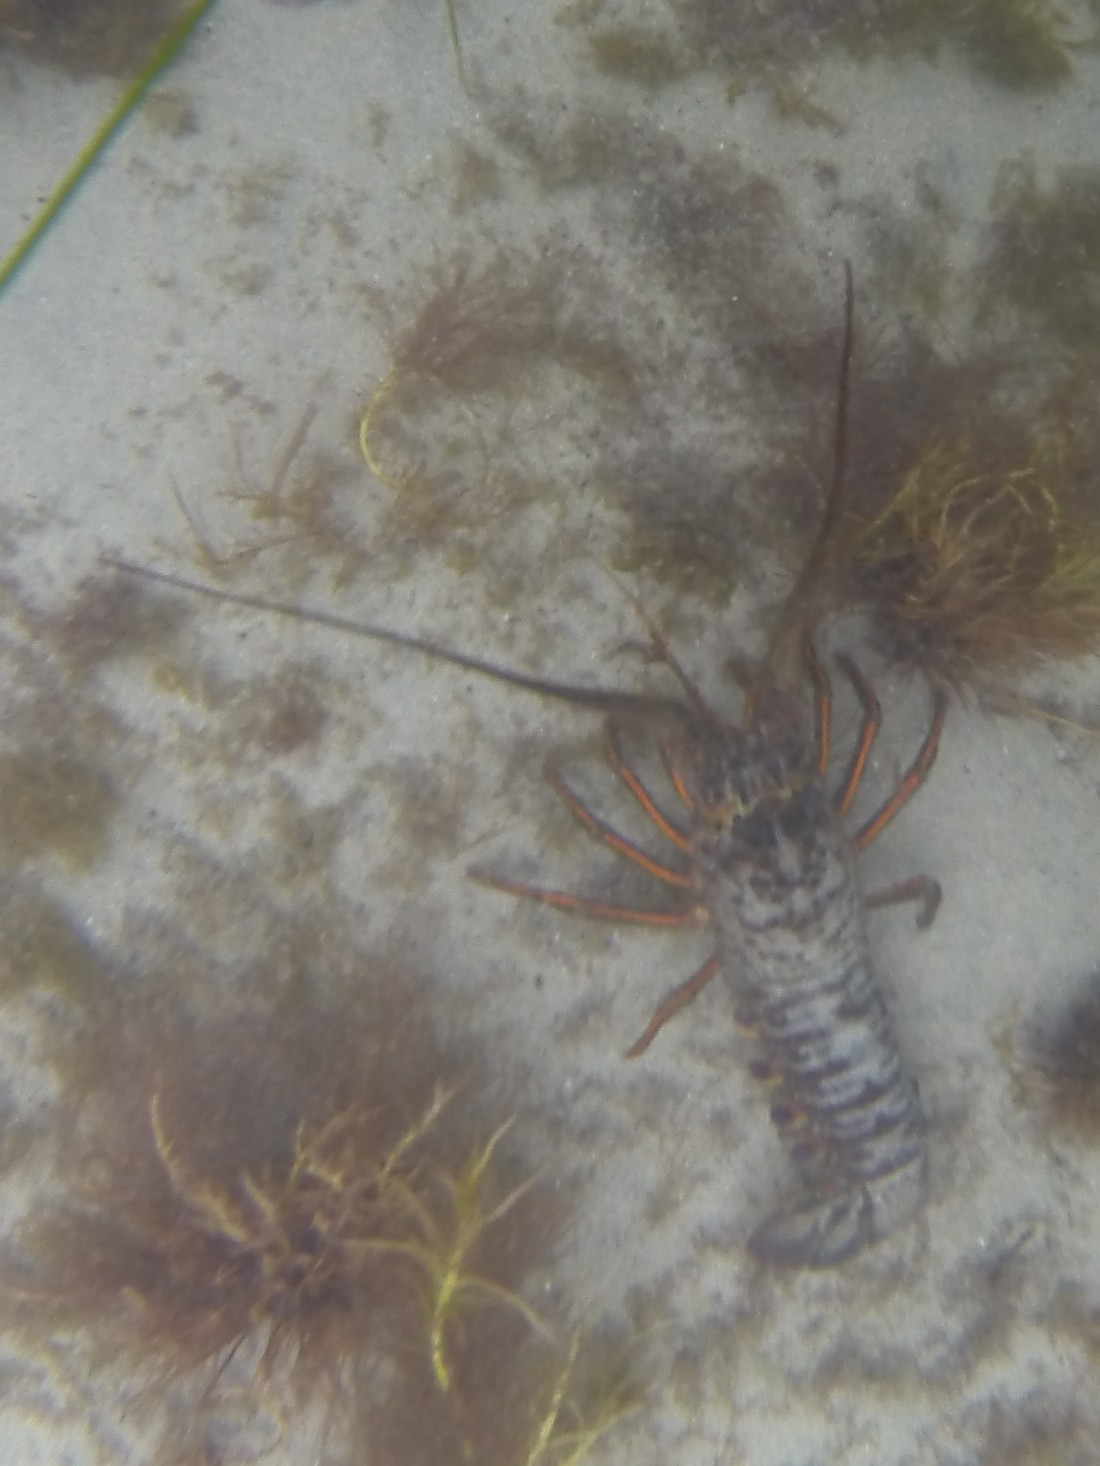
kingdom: Animalia
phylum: Arthropoda
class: Malacostraca
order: Decapoda
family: Palinuridae
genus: Panulirus
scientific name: Panulirus interruptus
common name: California spiny lobster
